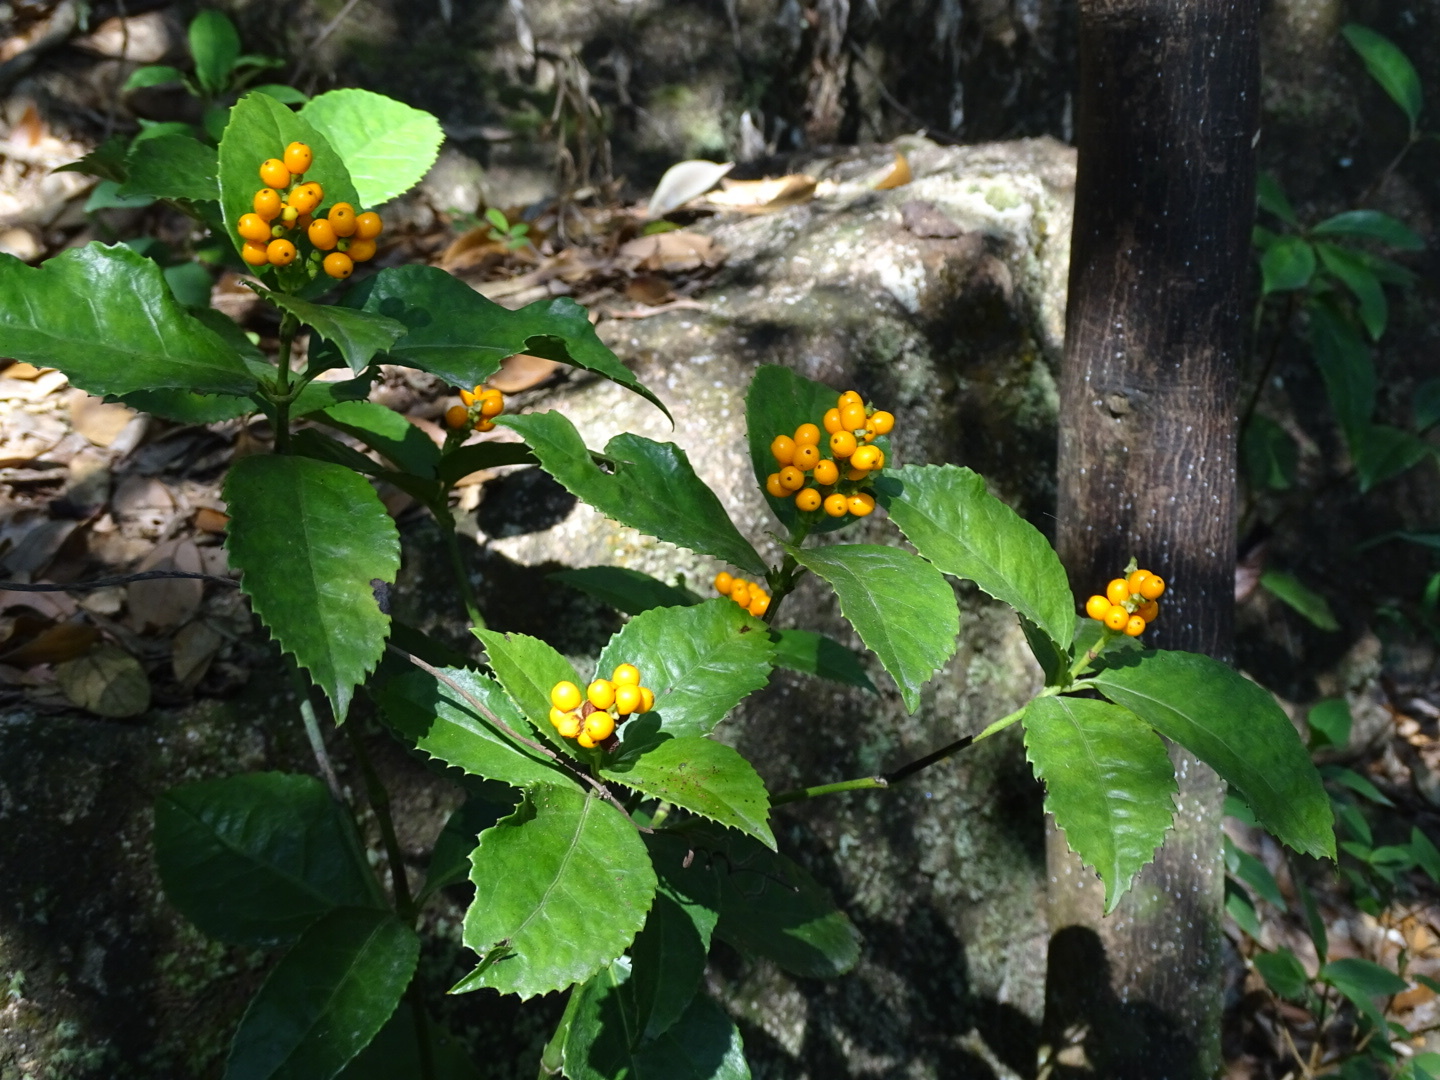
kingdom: Plantae
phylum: Tracheophyta
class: Magnoliopsida
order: Chloranthales
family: Chloranthaceae
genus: Sarcandra
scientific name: Sarcandra glabra
